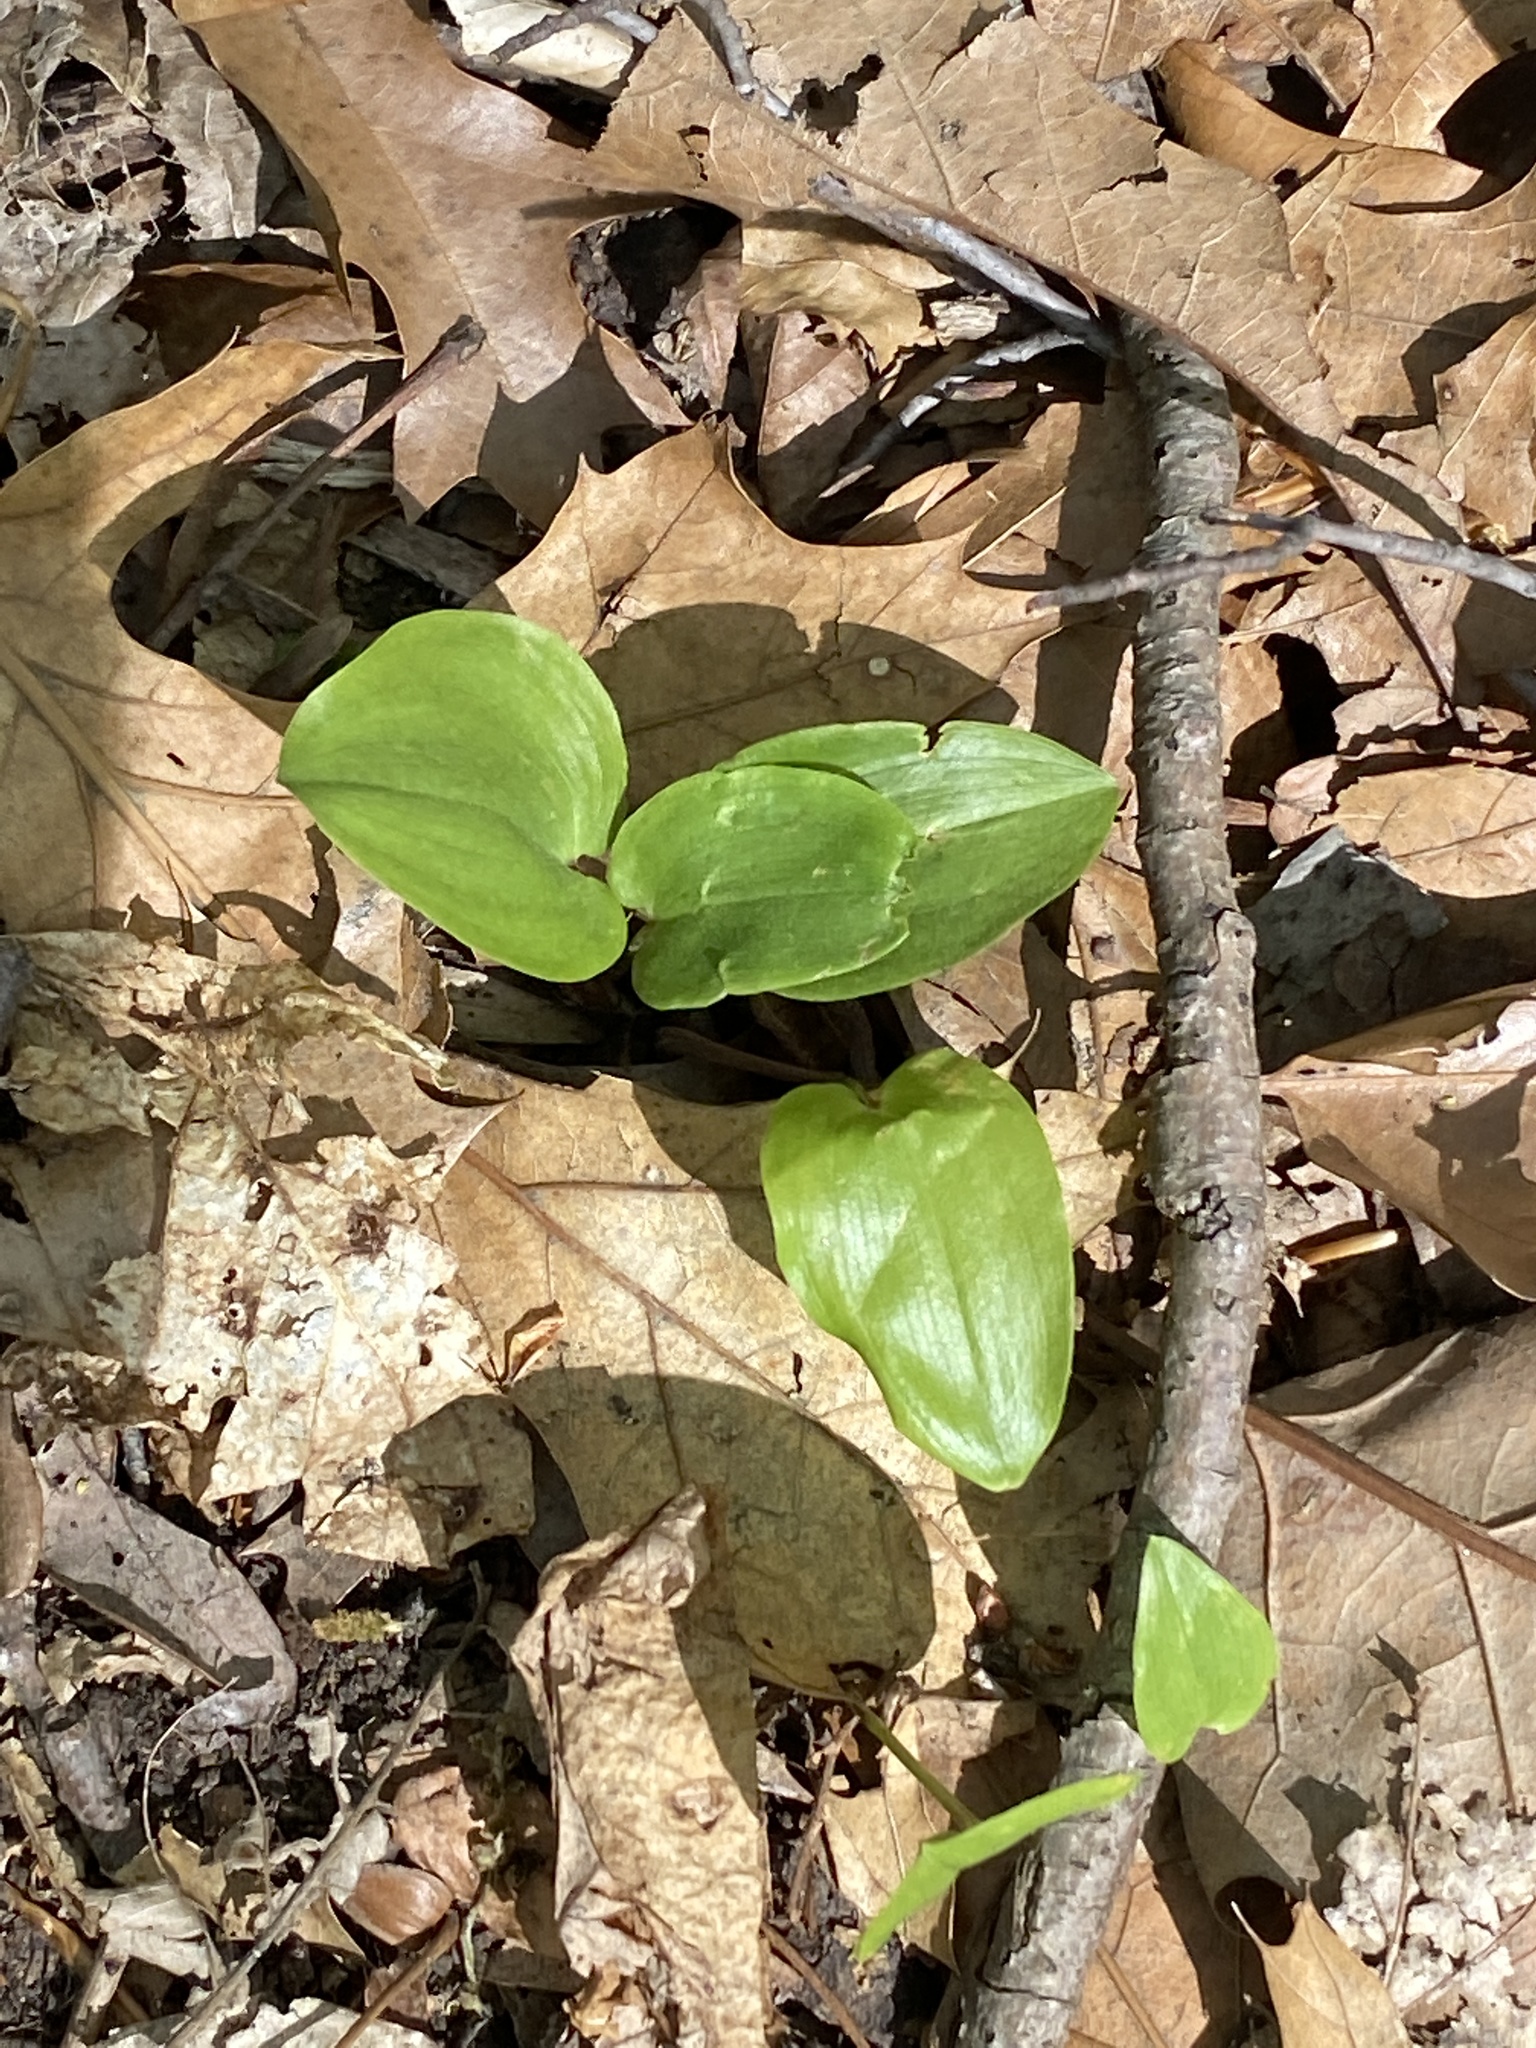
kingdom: Plantae
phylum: Tracheophyta
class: Liliopsida
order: Asparagales
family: Asparagaceae
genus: Maianthemum
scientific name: Maianthemum canadense
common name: False lily-of-the-valley
